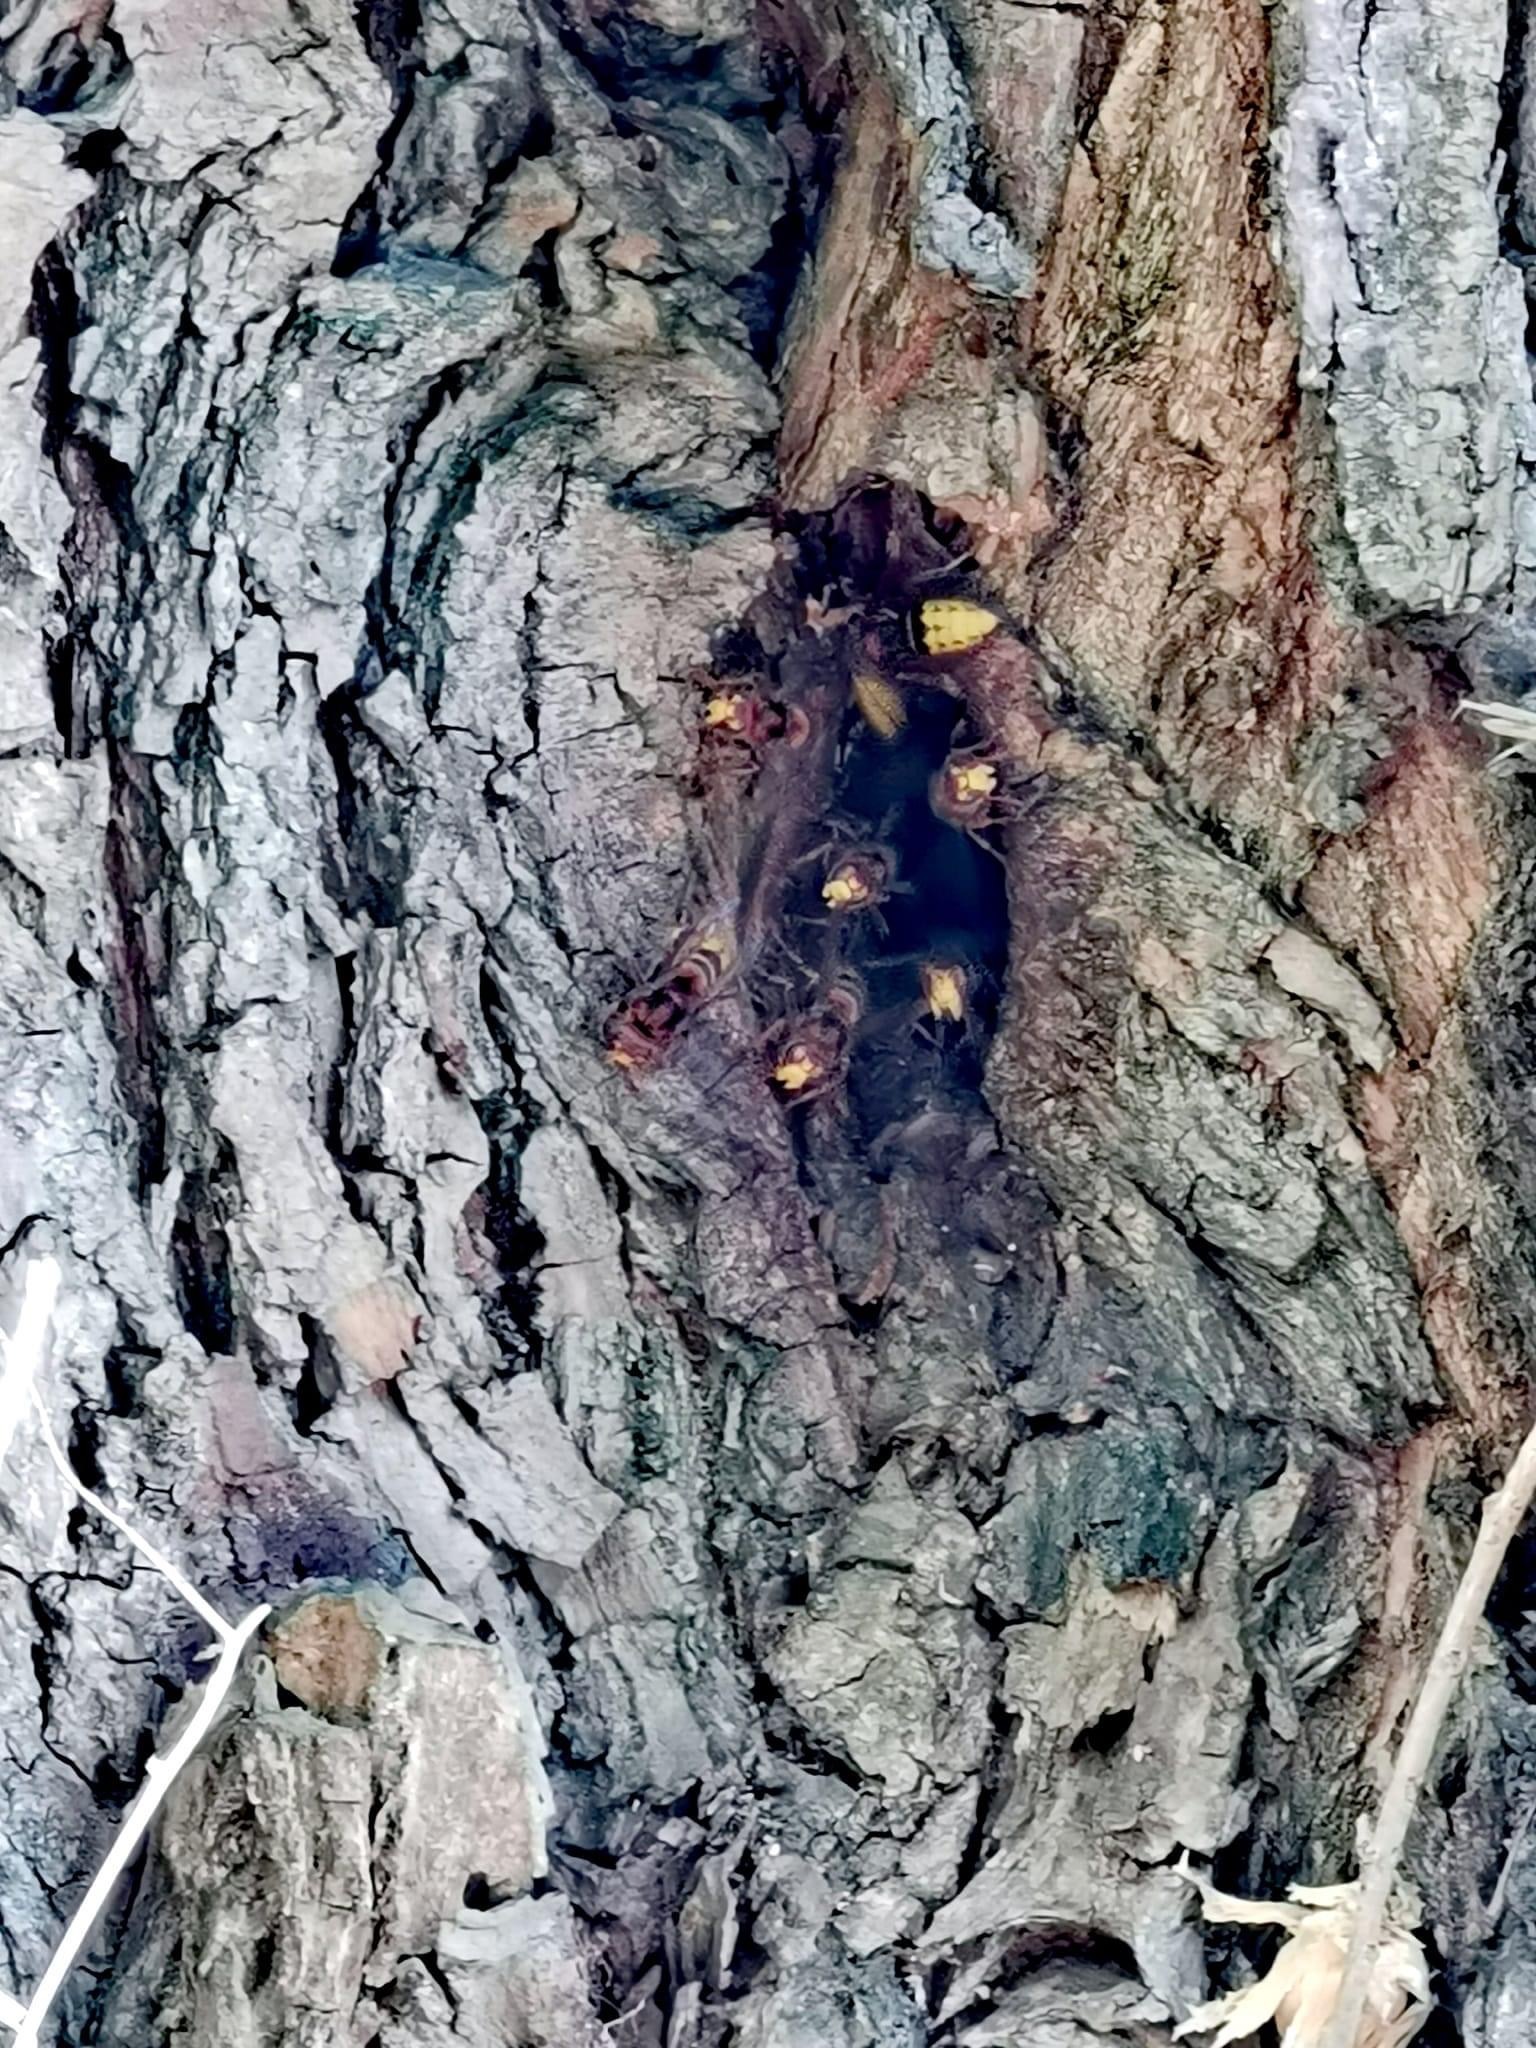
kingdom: Animalia
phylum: Arthropoda
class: Insecta
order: Hymenoptera
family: Vespidae
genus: Vespa
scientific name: Vespa crabro
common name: Hornet
